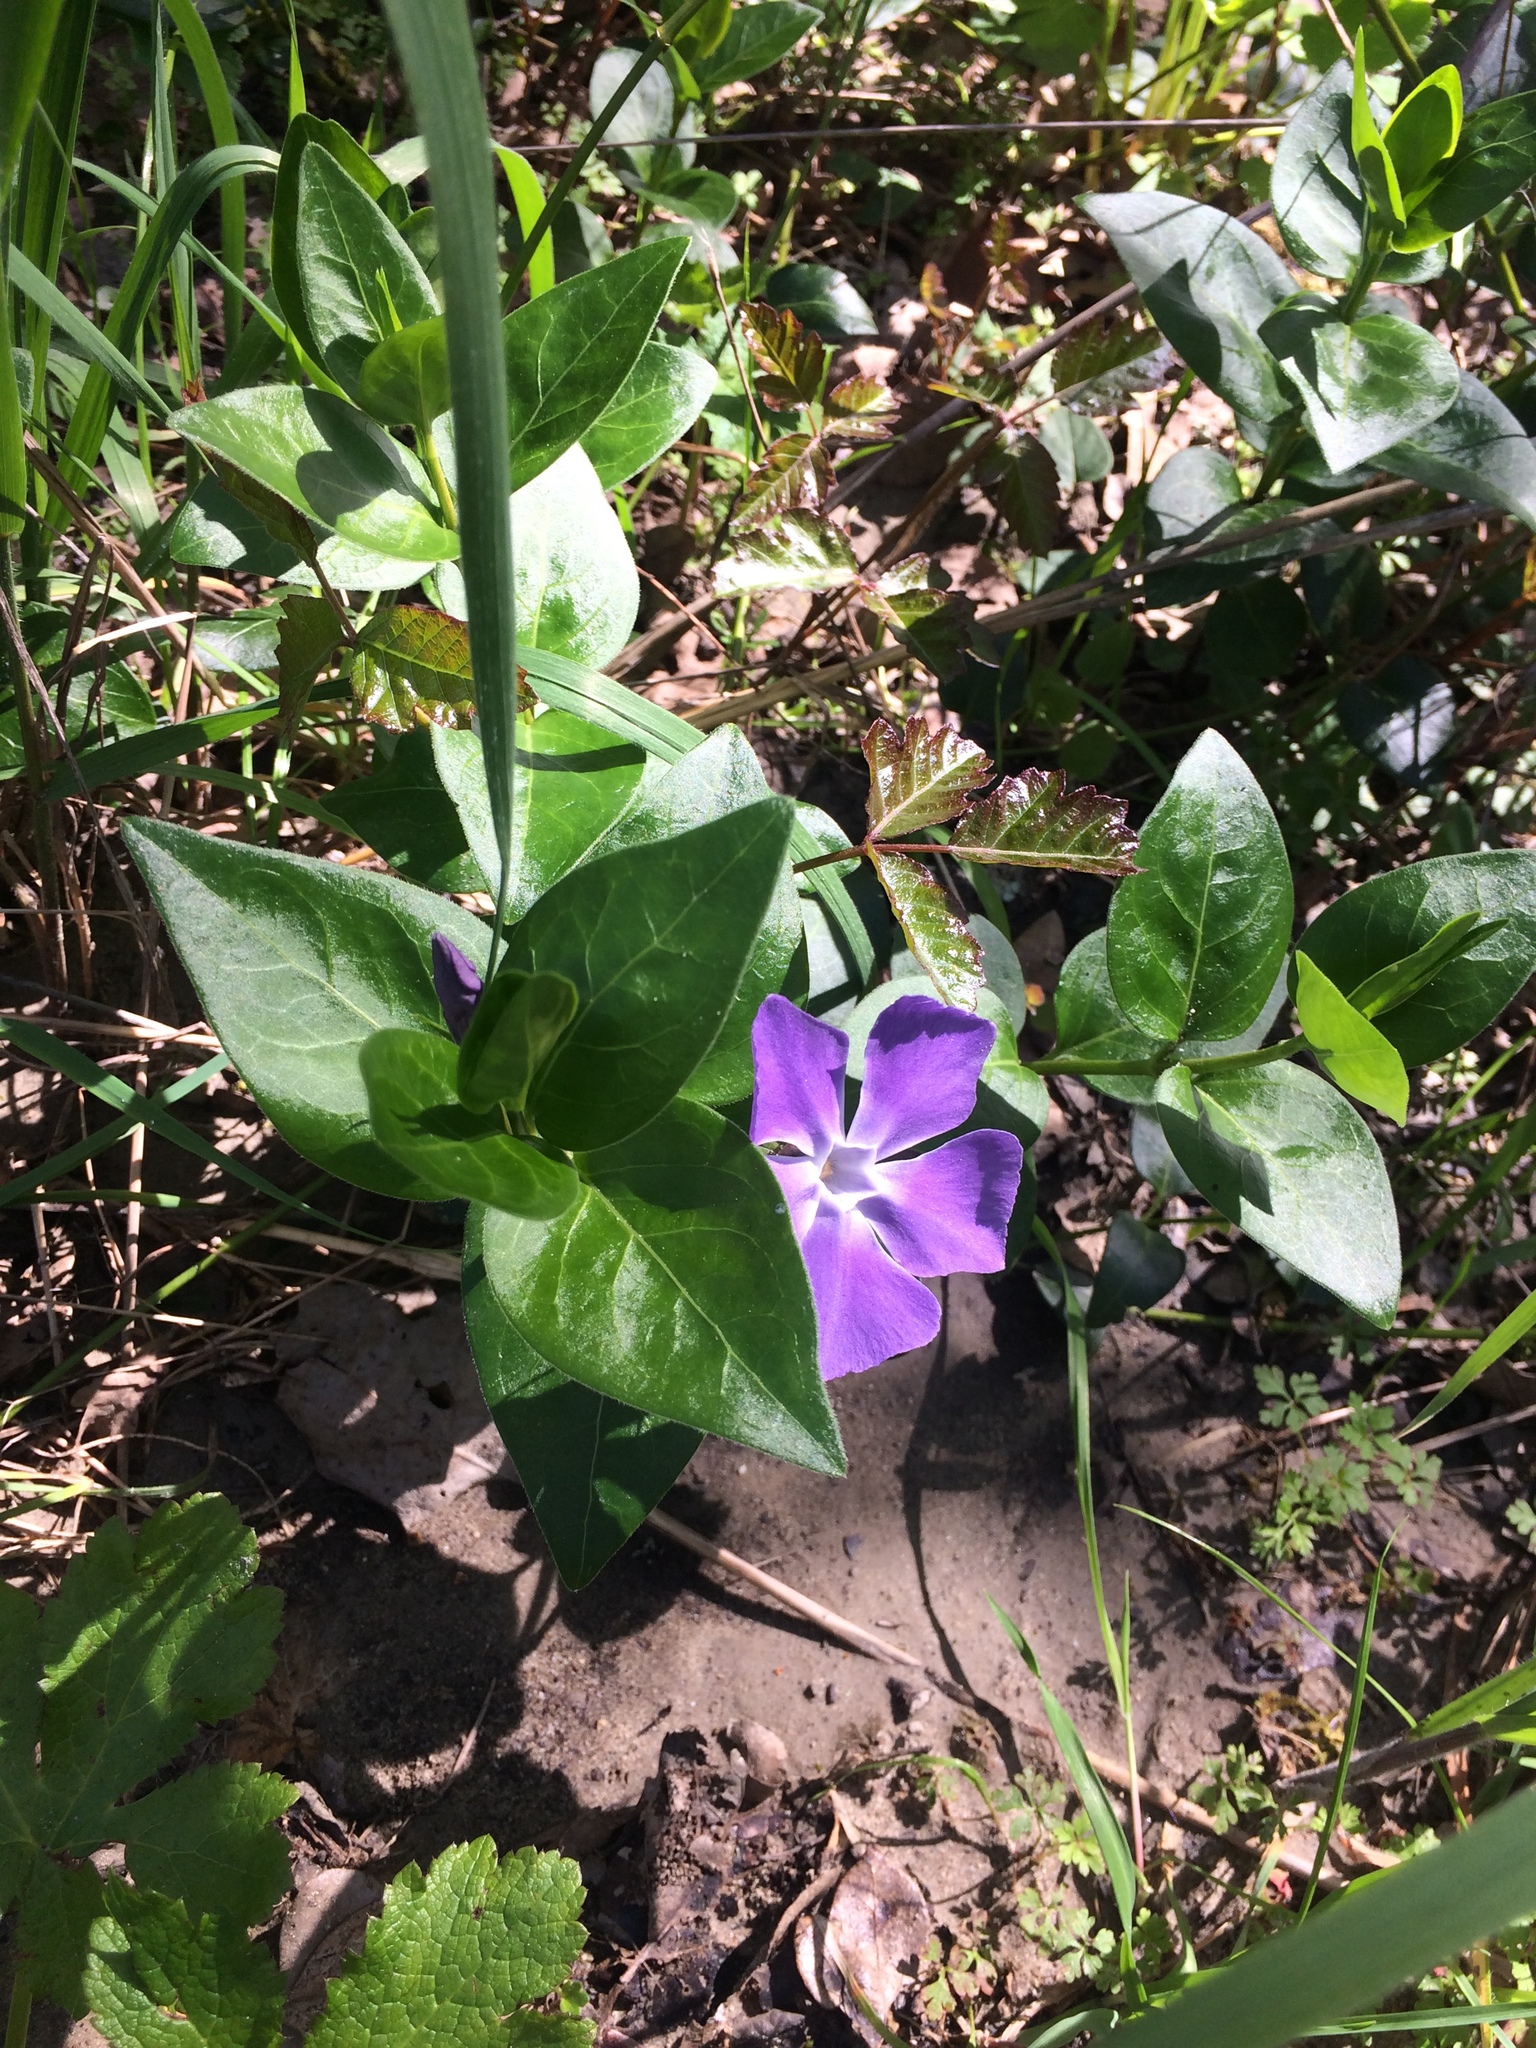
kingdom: Plantae
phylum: Tracheophyta
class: Magnoliopsida
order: Gentianales
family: Apocynaceae
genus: Vinca
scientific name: Vinca major
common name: Greater periwinkle
